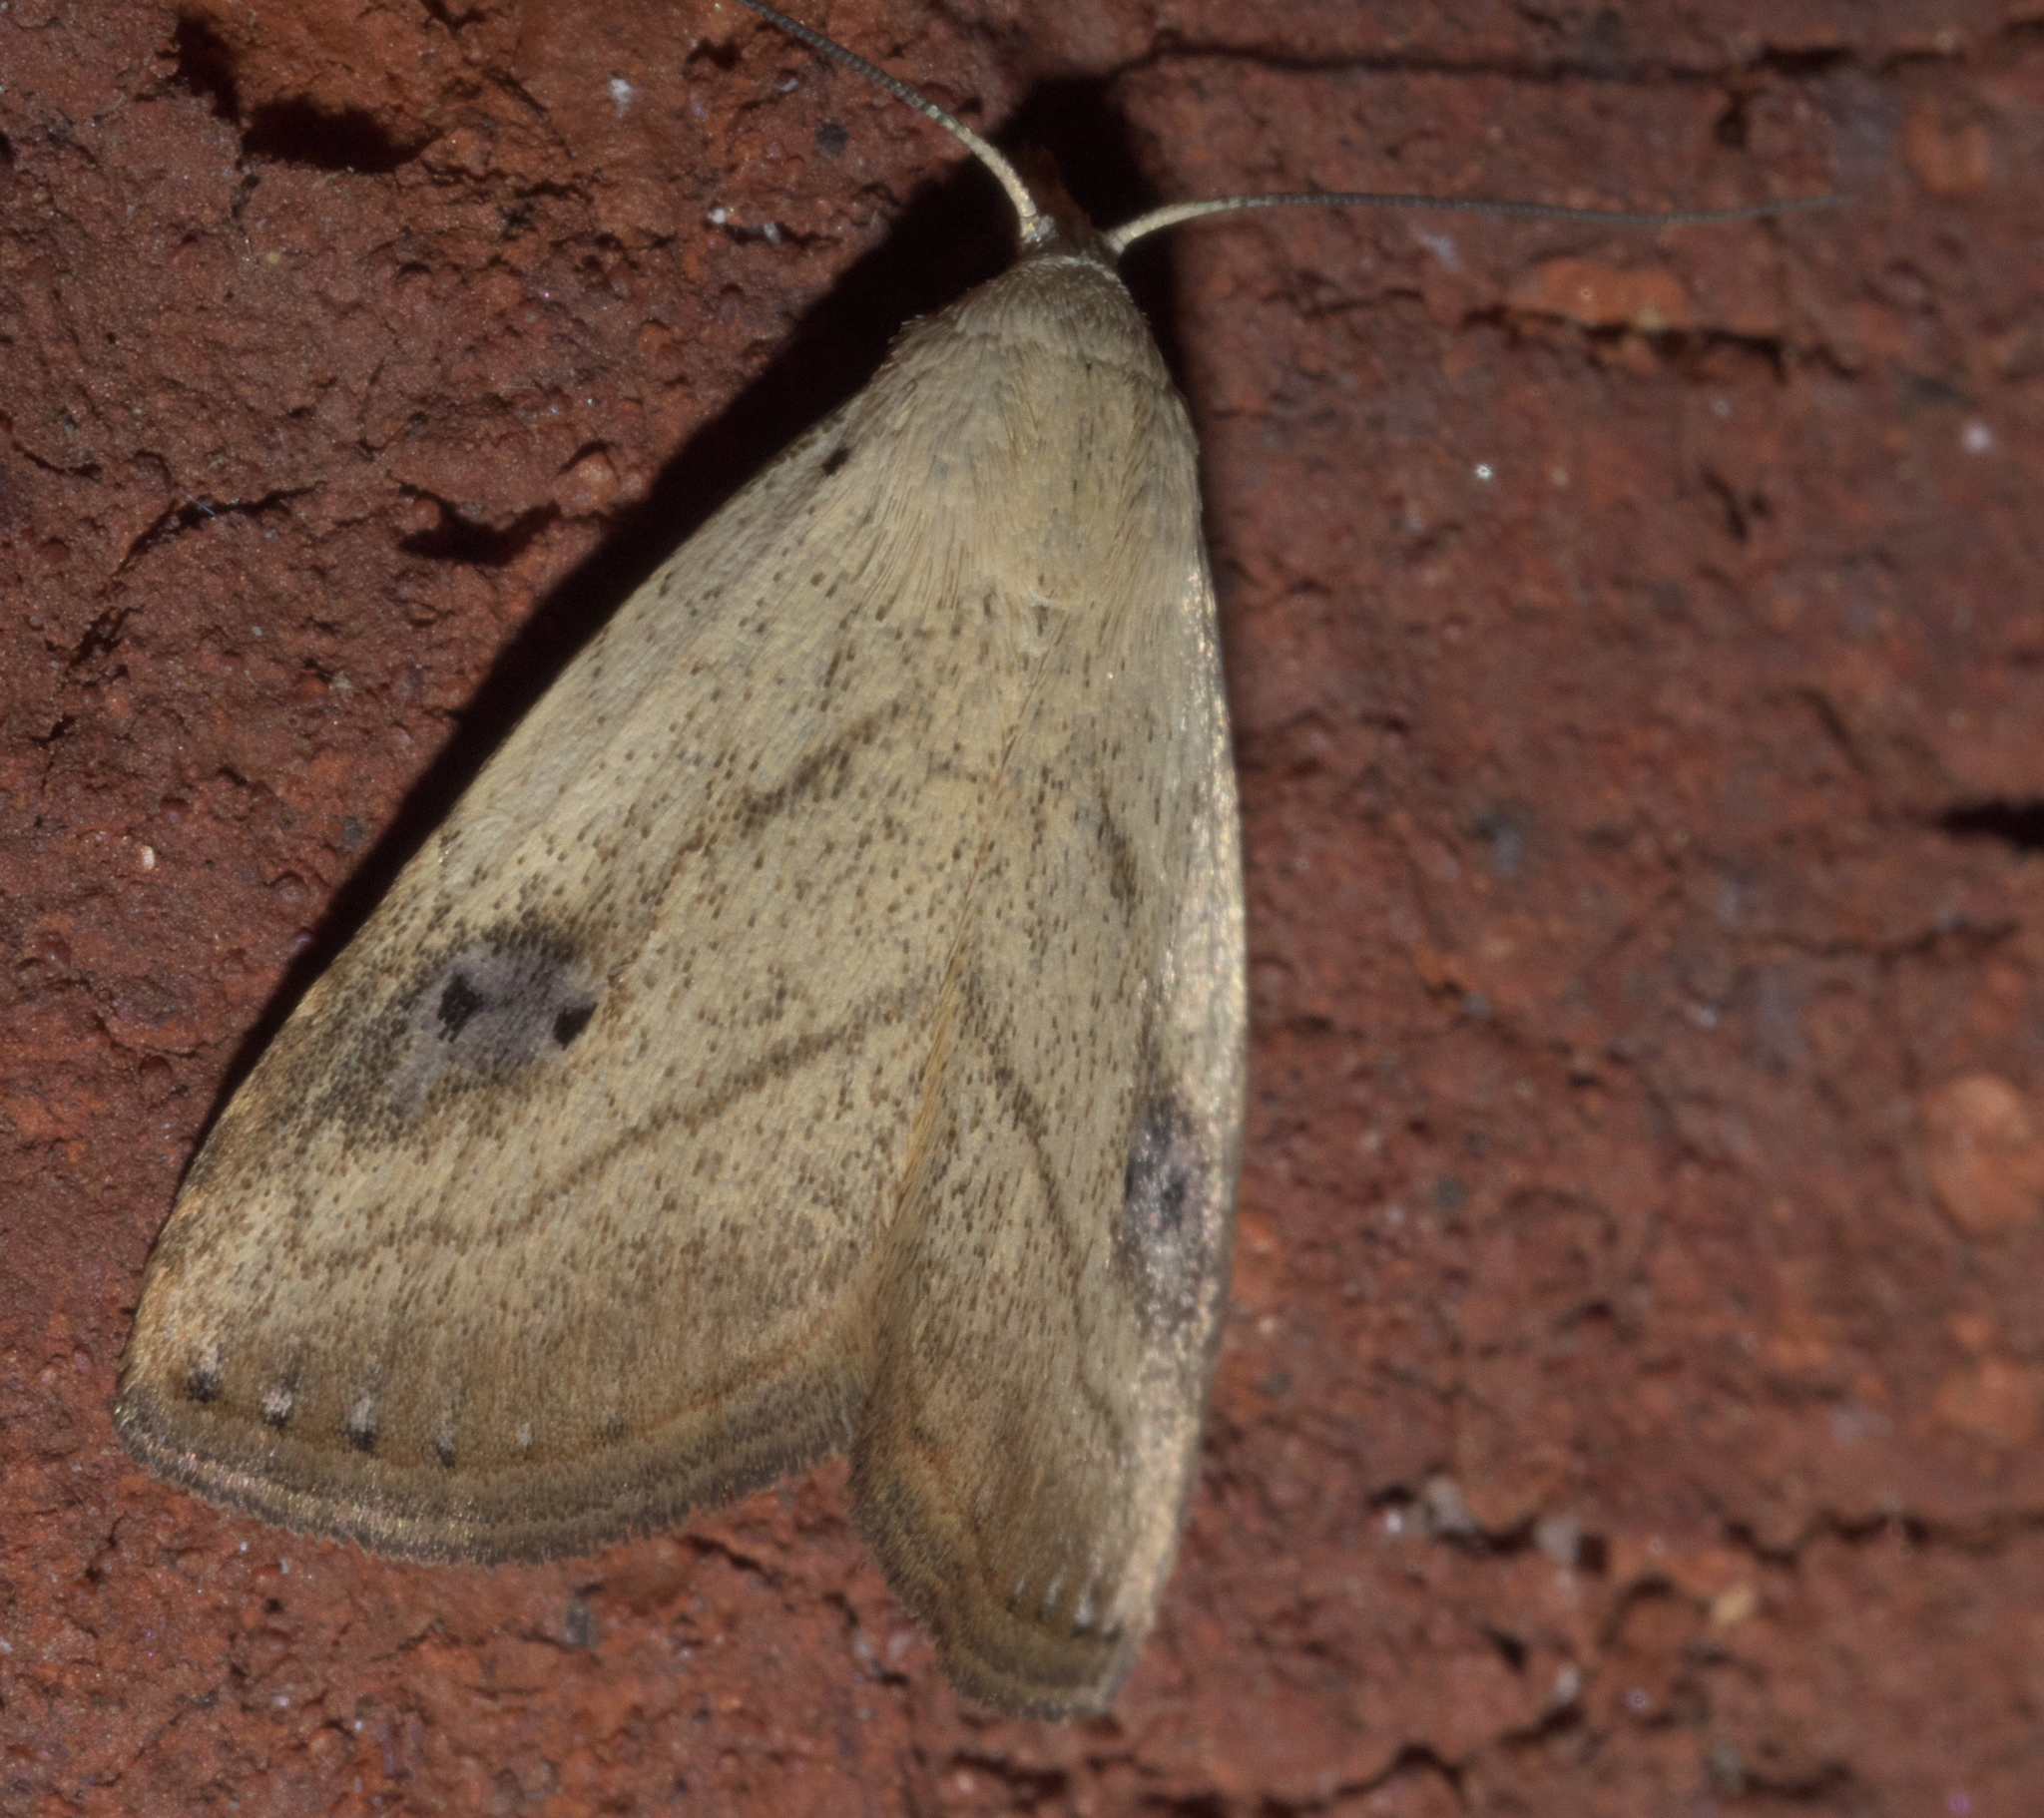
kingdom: Animalia
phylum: Arthropoda
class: Insecta
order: Lepidoptera
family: Erebidae
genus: Rivula
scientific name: Rivula propinqualis
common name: Spotted grass moth
